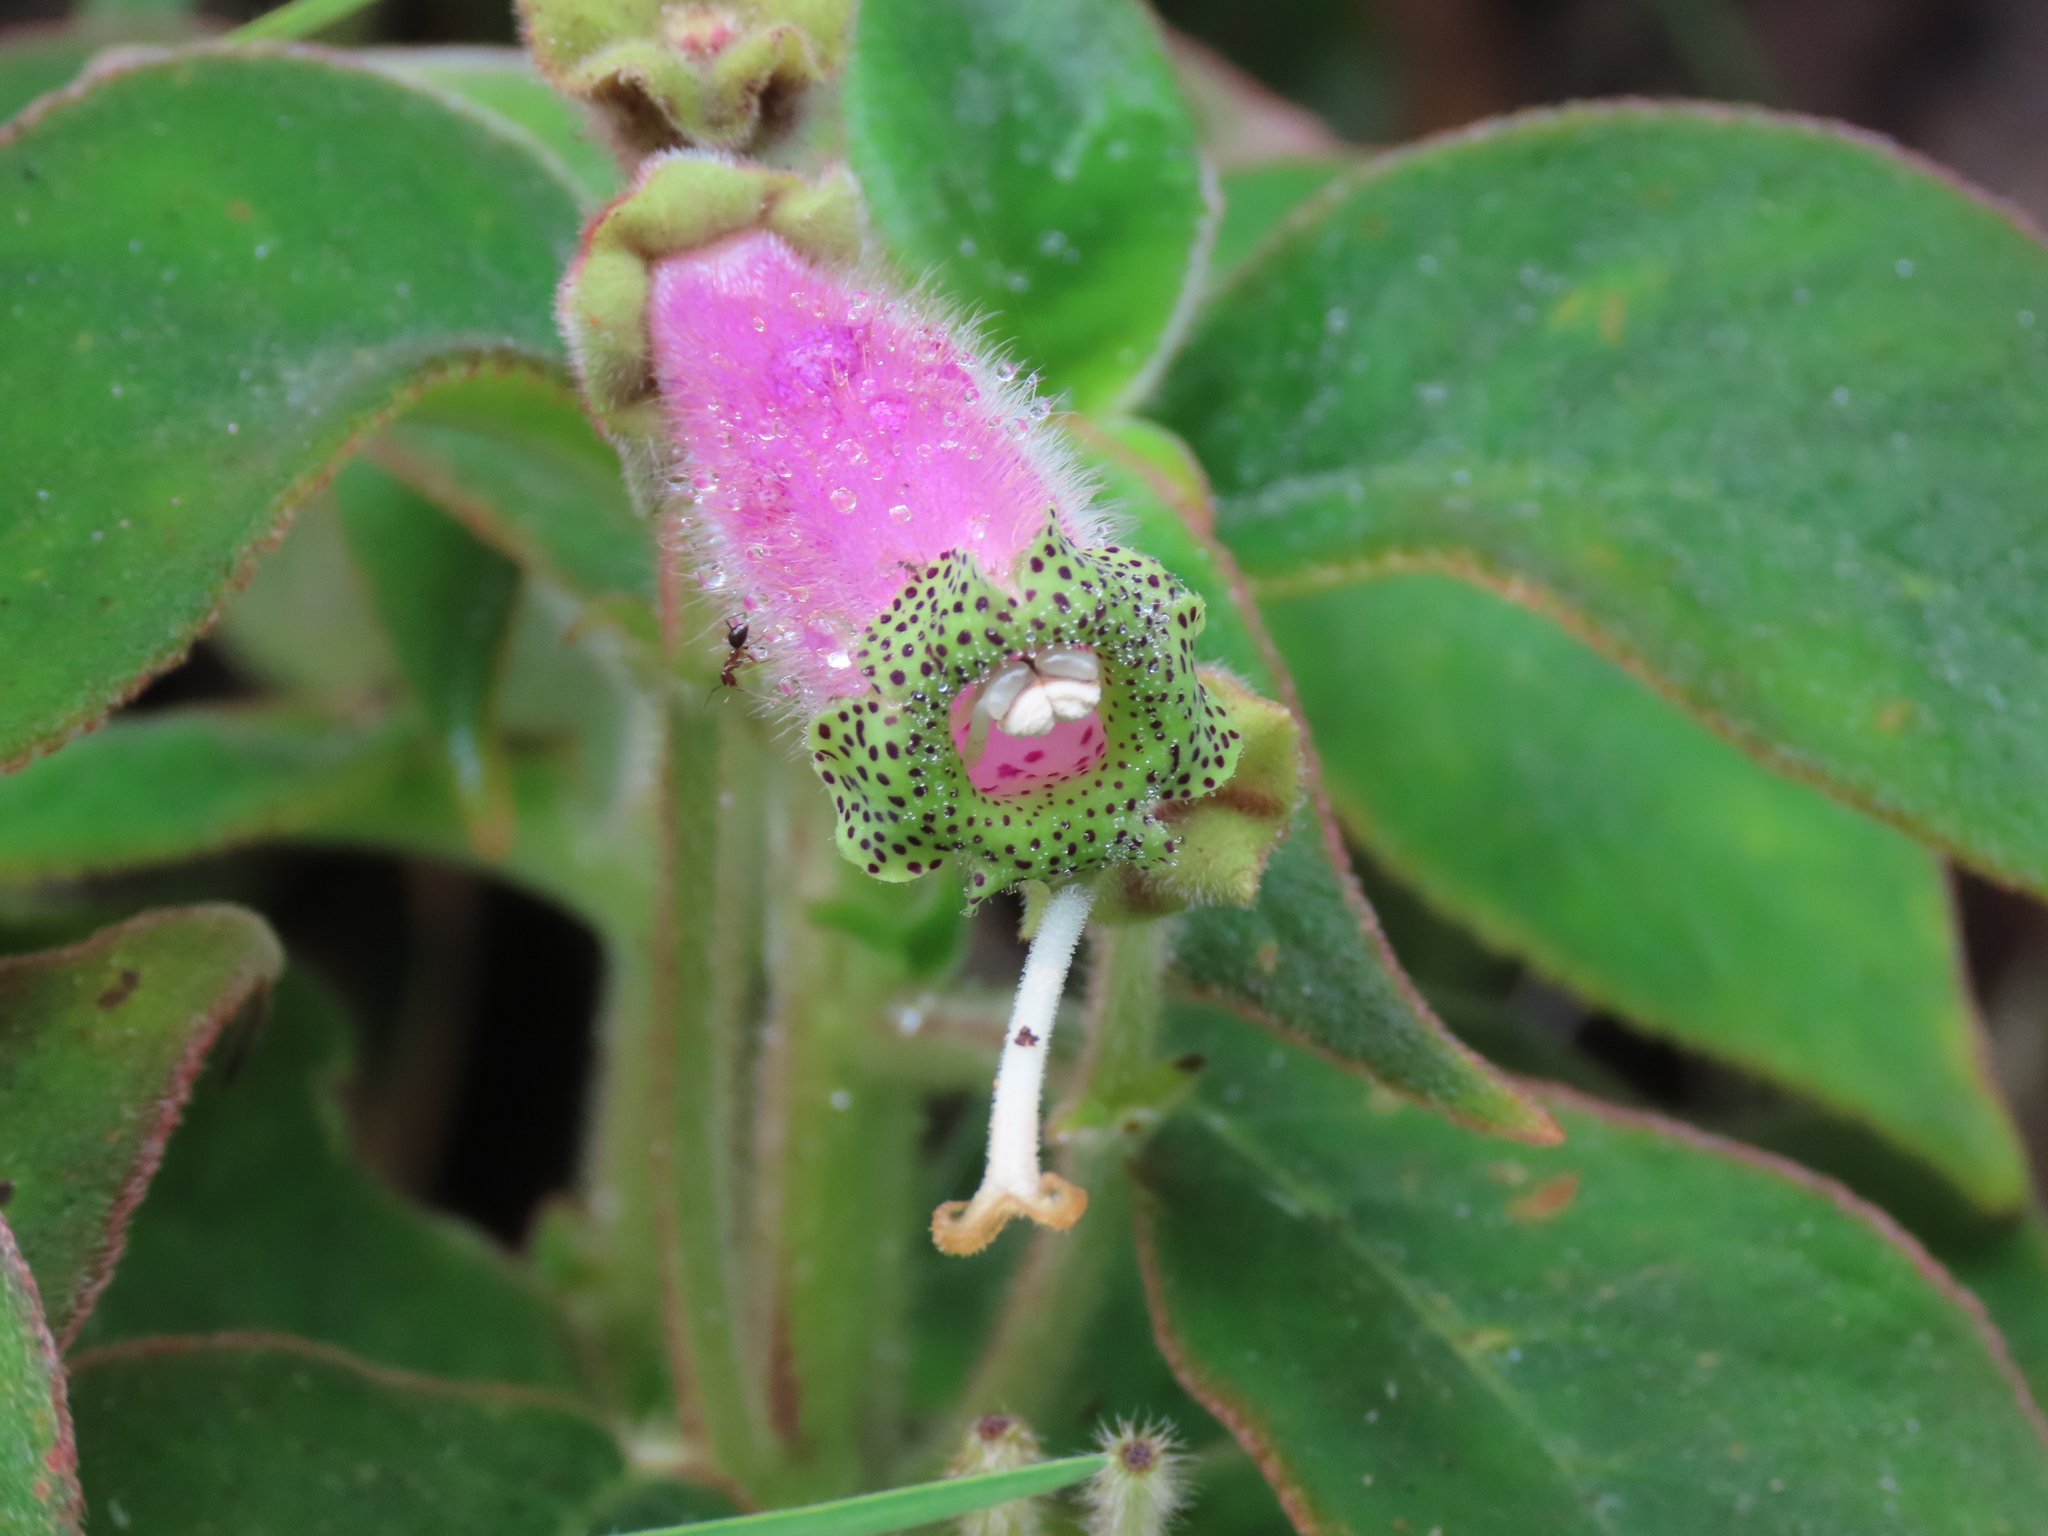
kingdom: Plantae
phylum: Tracheophyta
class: Magnoliopsida
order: Lamiales
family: Gesneriaceae
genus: Kohleria
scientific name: Kohleria warszewiczii
